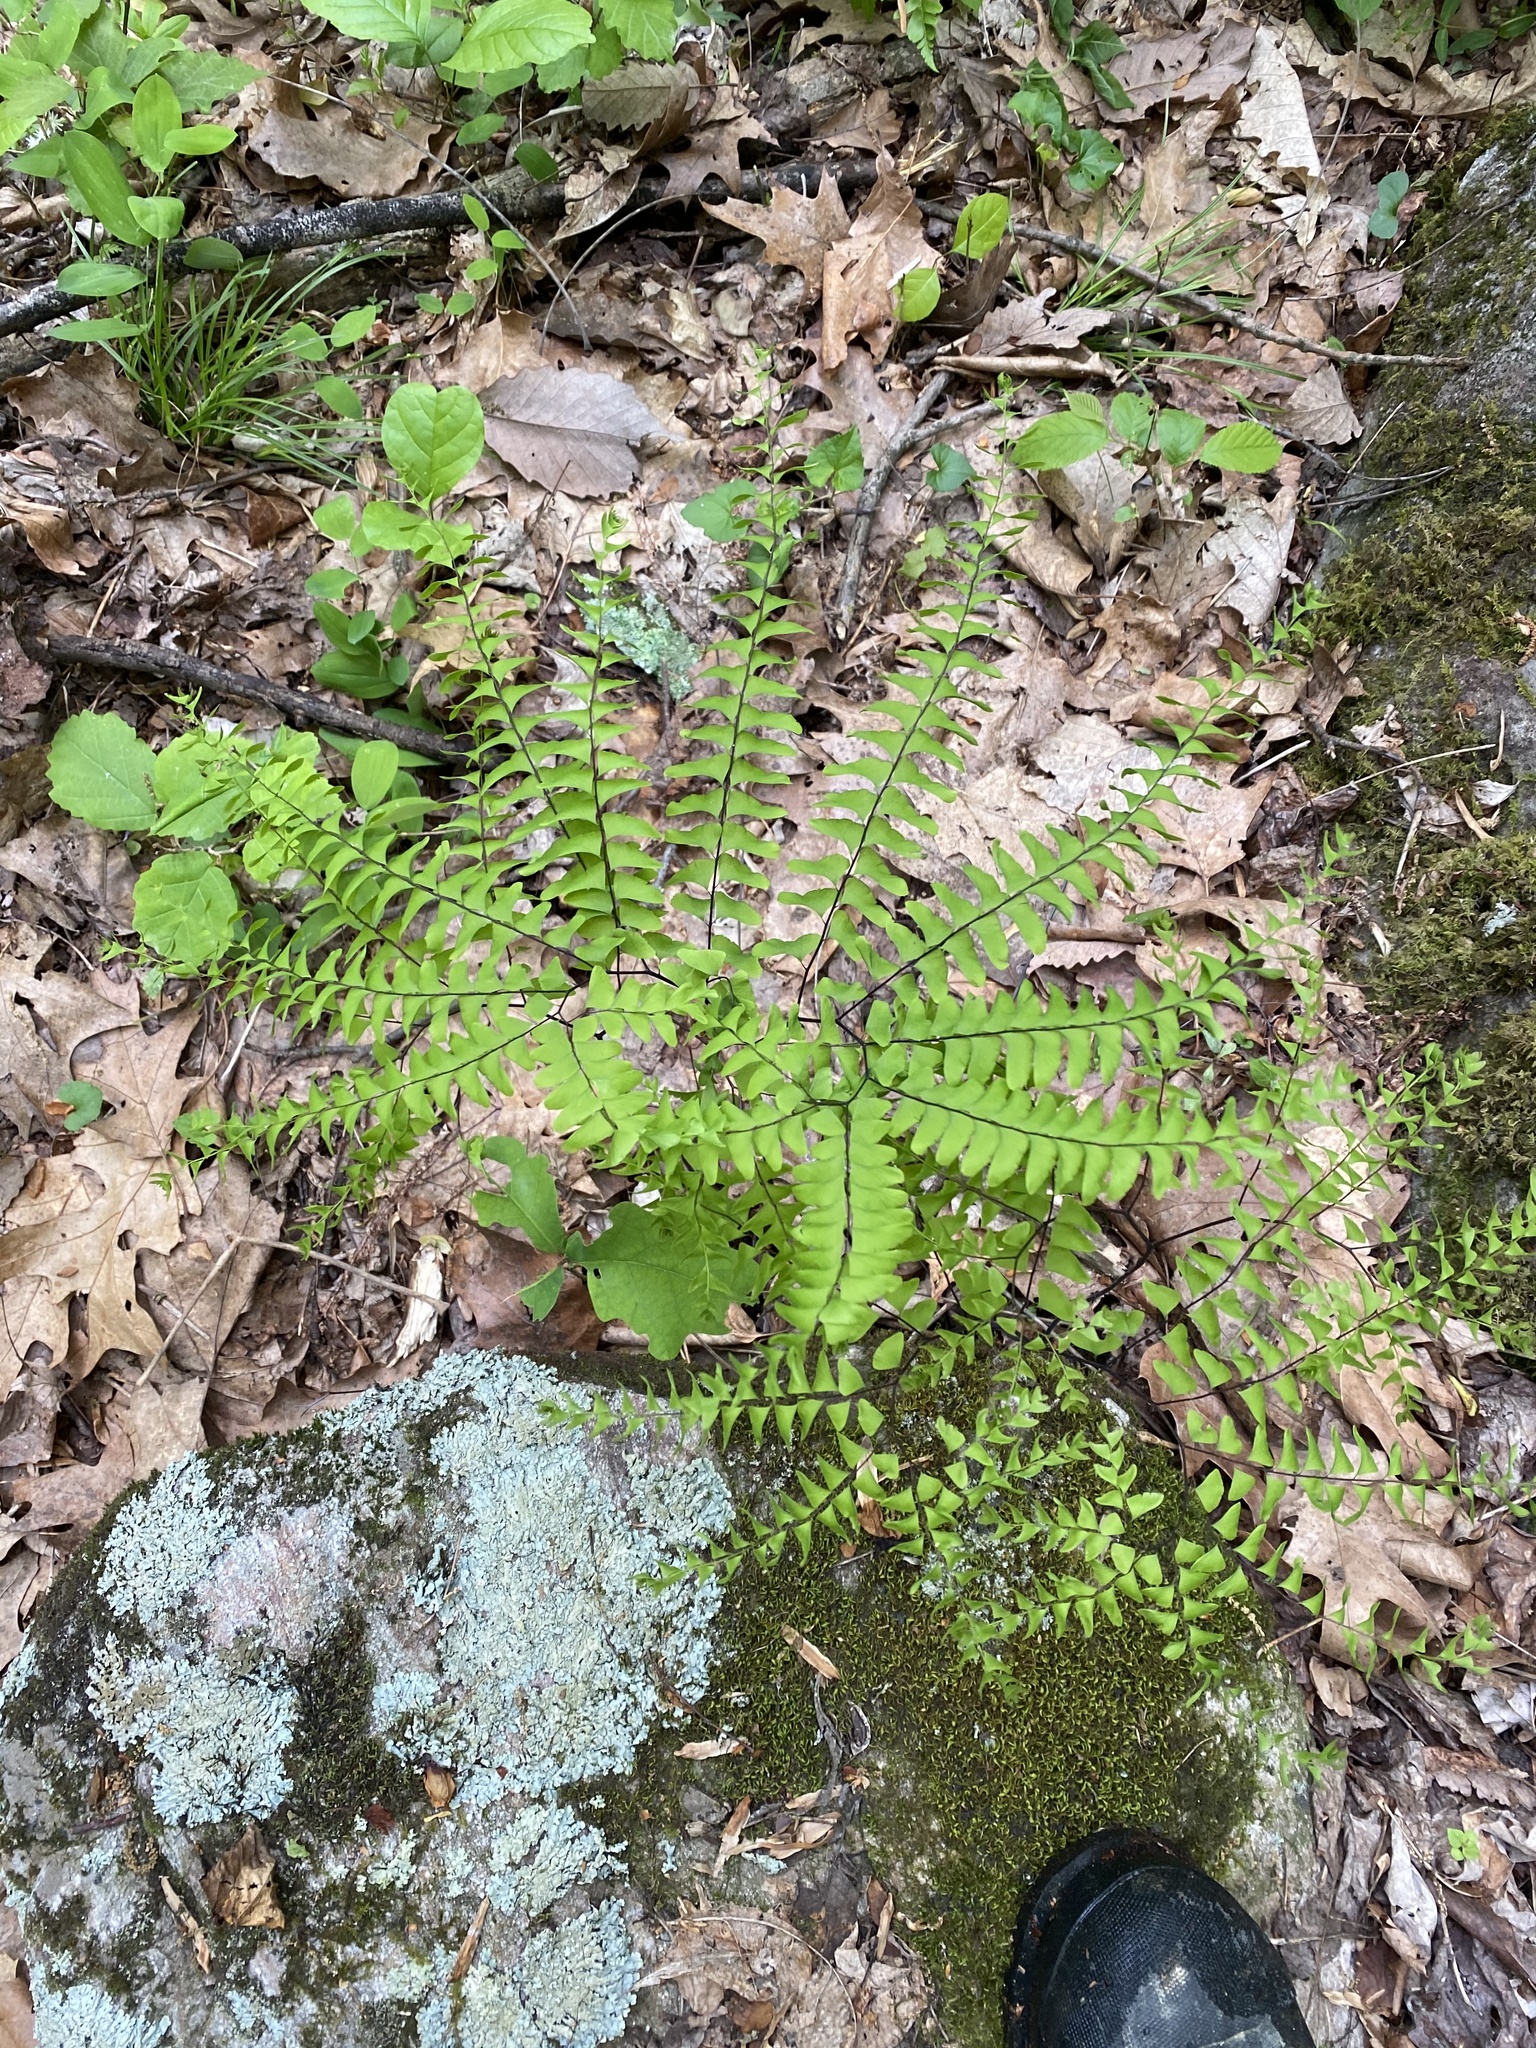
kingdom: Plantae
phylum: Tracheophyta
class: Polypodiopsida
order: Polypodiales
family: Pteridaceae
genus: Adiantum
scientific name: Adiantum pedatum
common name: Five-finger fern
